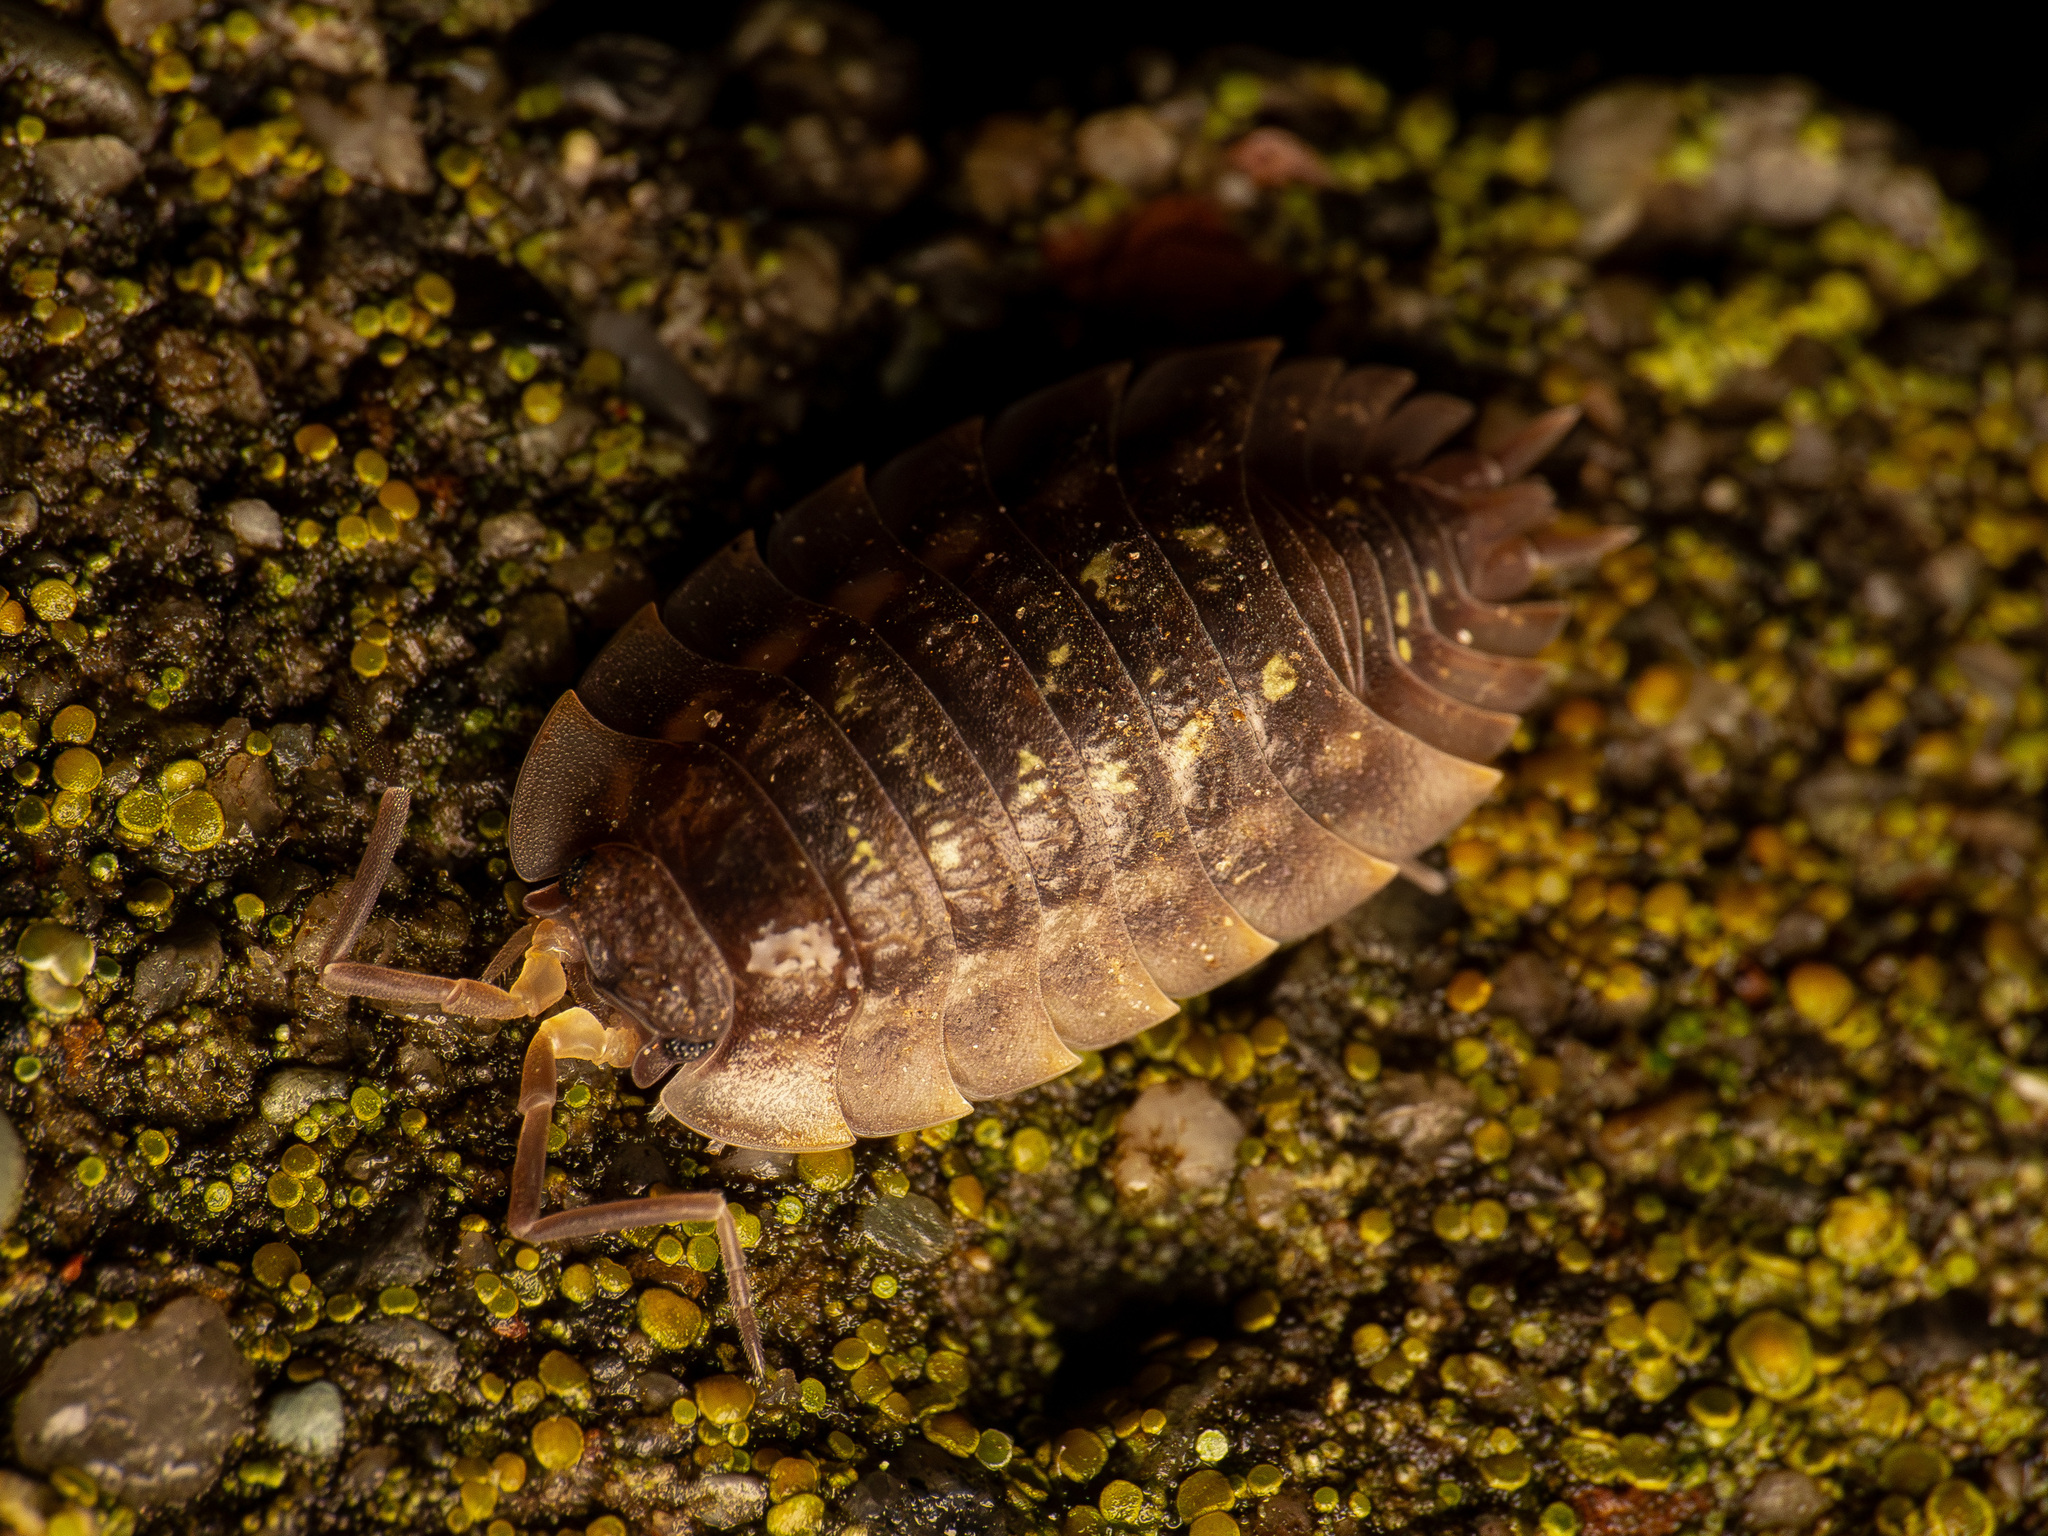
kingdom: Animalia
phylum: Arthropoda
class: Malacostraca
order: Isopoda
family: Oniscidae
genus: Oniscus
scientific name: Oniscus asellus
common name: Common shiny woodlouse
